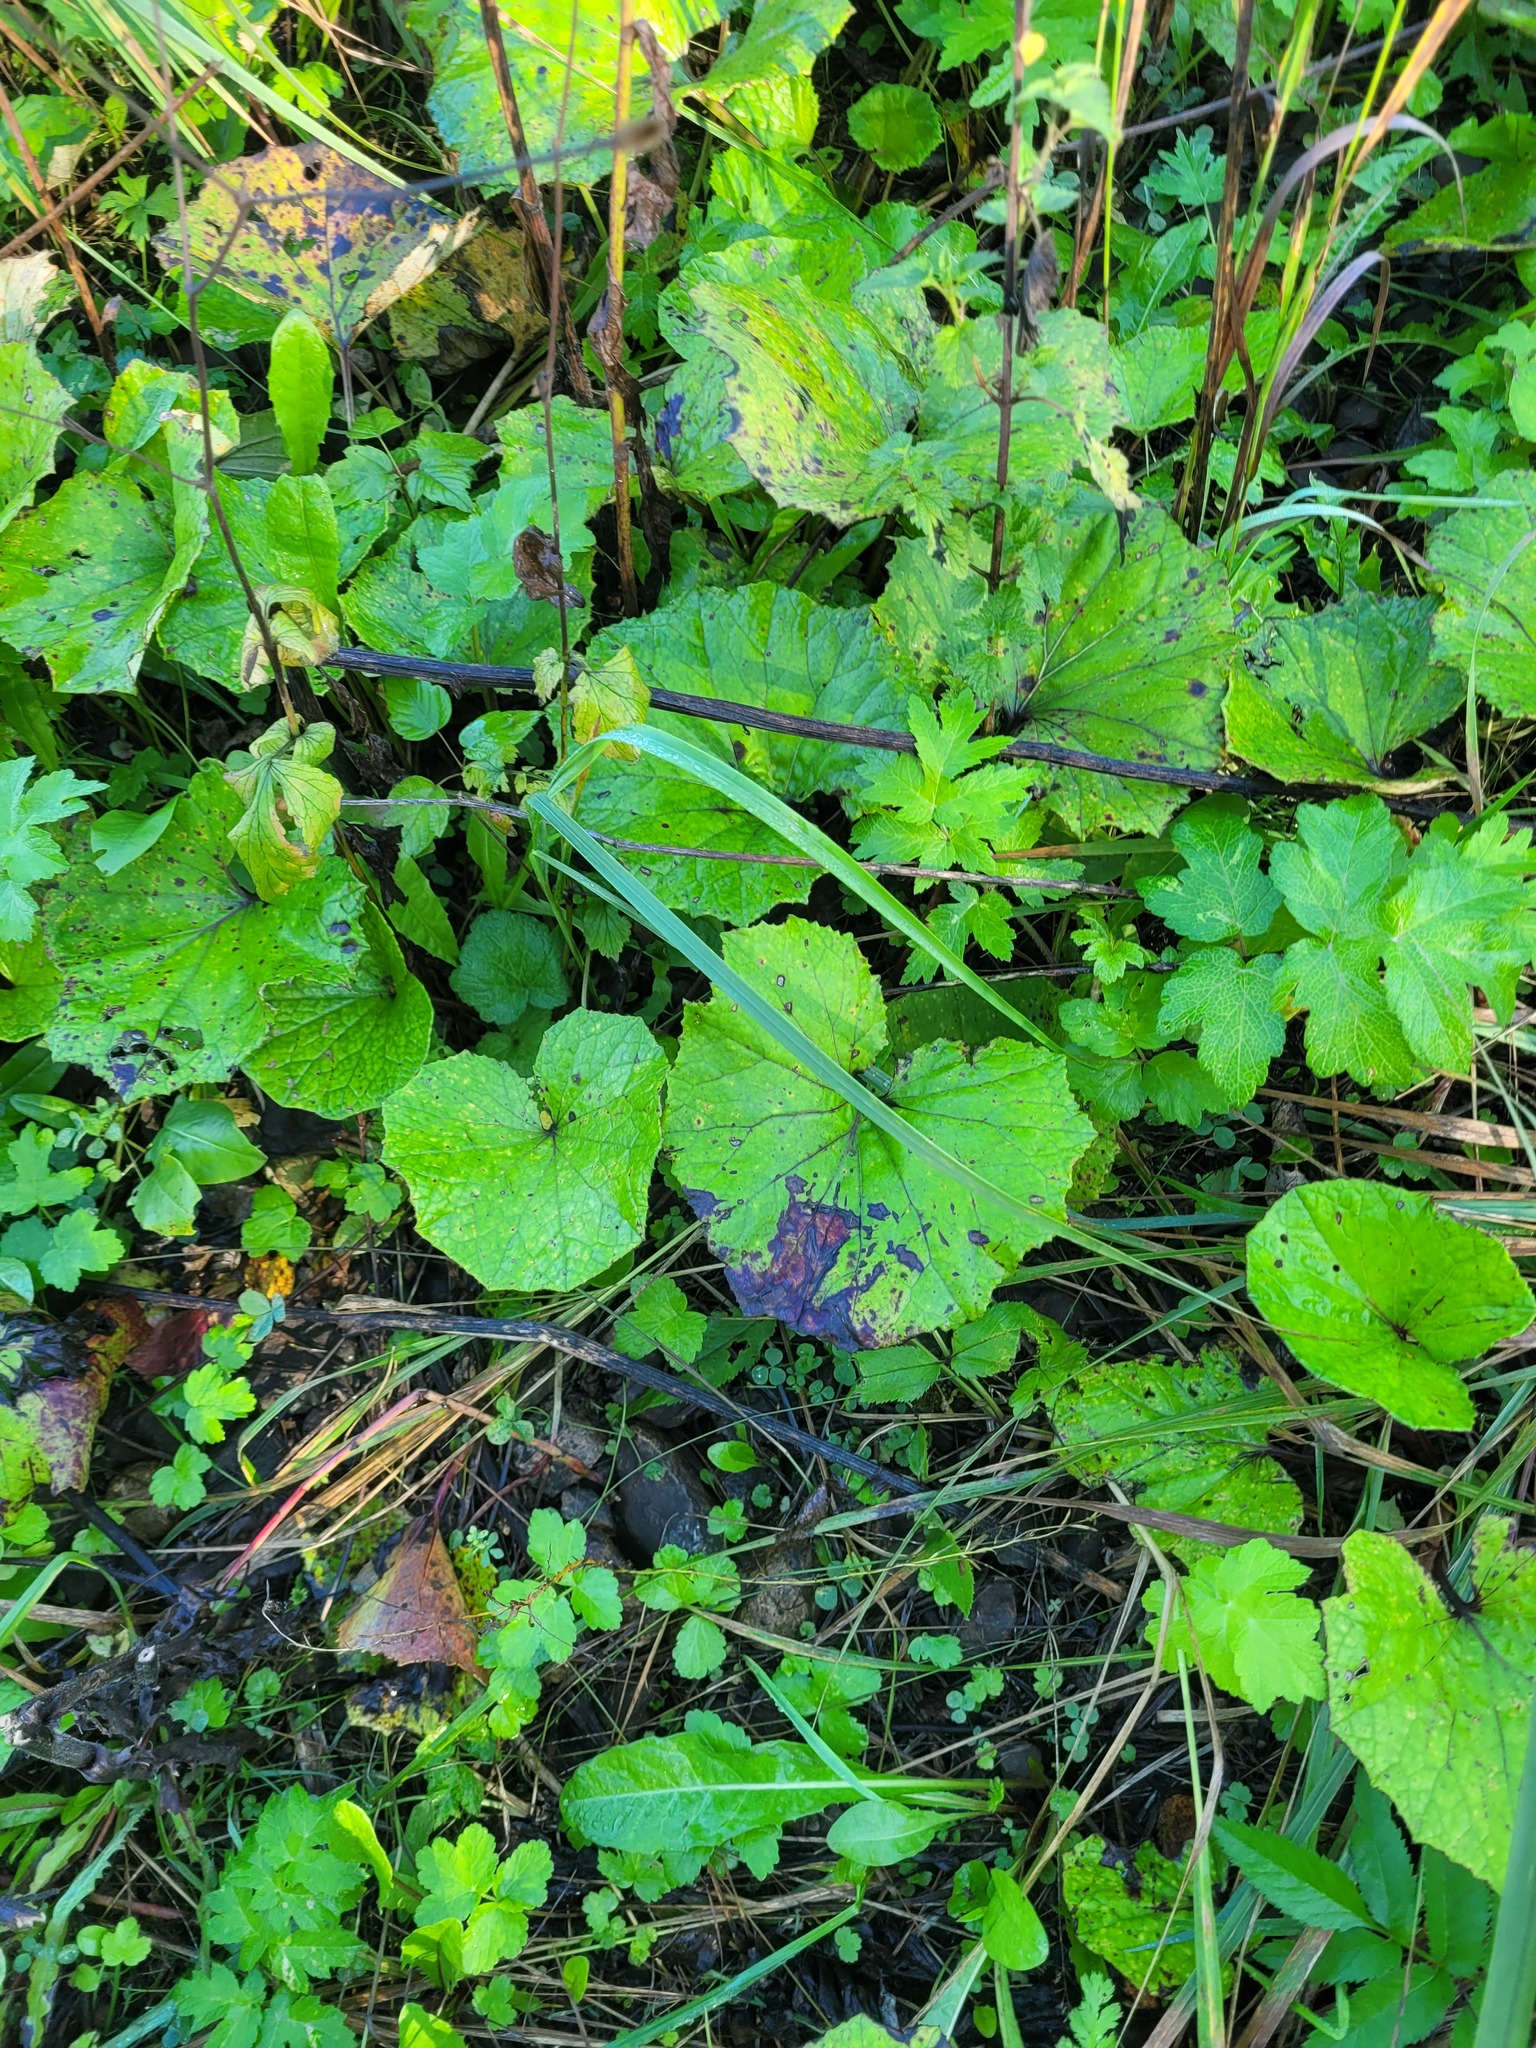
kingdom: Plantae
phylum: Tracheophyta
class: Magnoliopsida
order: Asterales
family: Asteraceae
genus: Tussilago
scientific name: Tussilago farfara
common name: Coltsfoot
